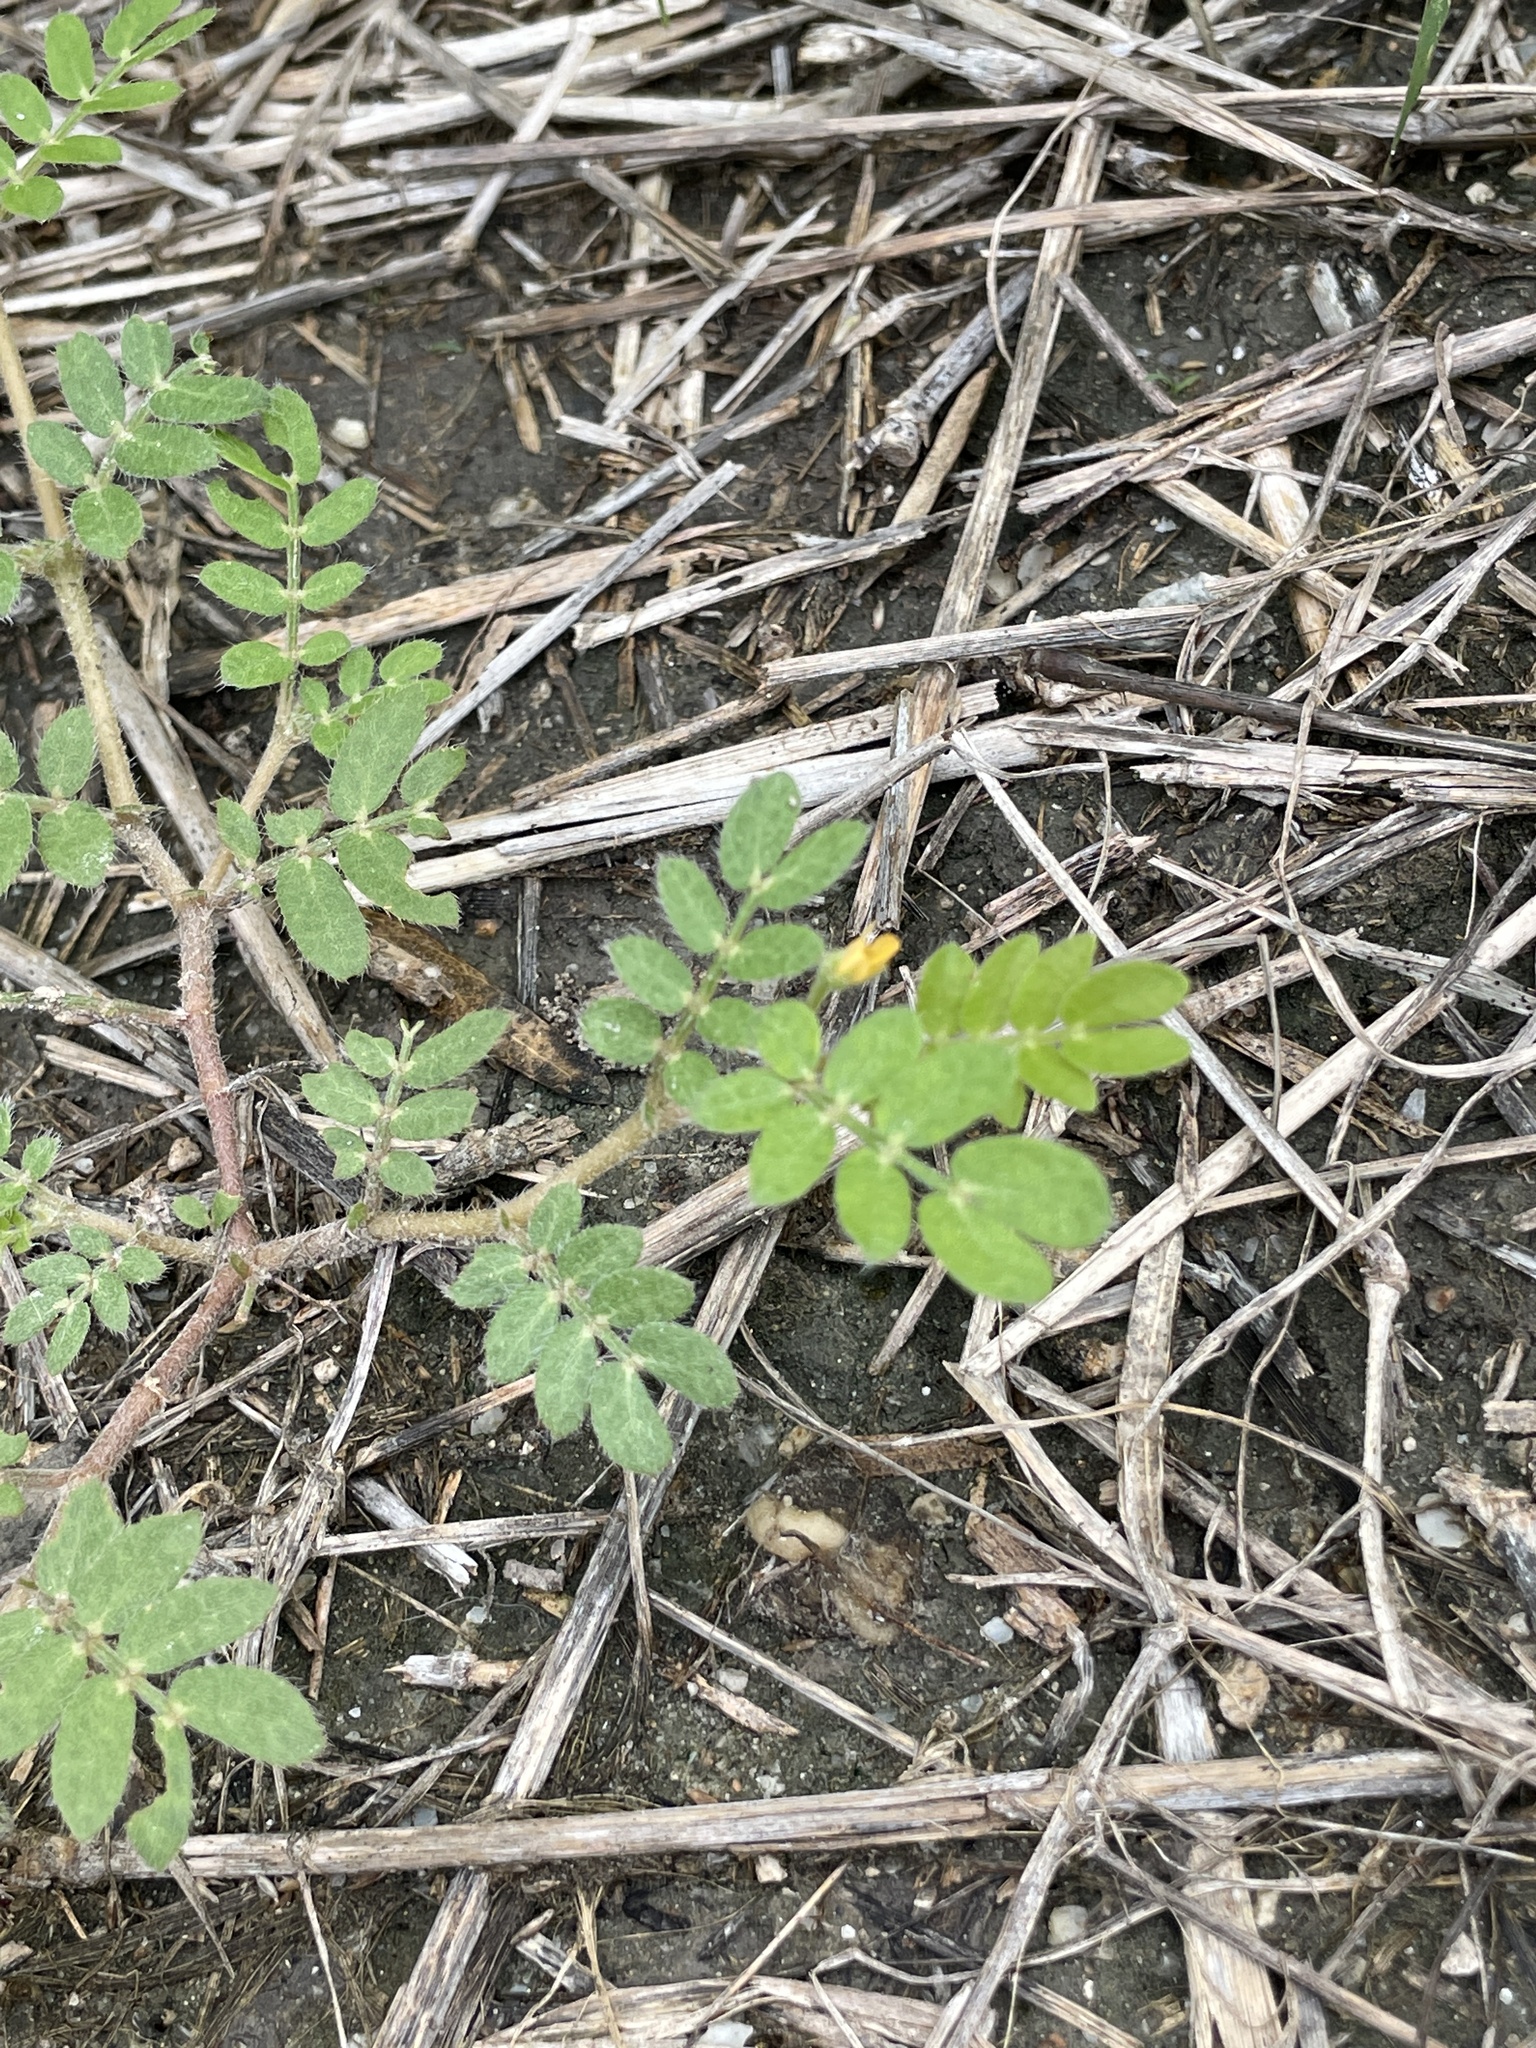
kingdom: Plantae
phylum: Tracheophyta
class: Magnoliopsida
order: Zygophyllales
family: Zygophyllaceae
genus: Tribulus
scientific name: Tribulus terrestris
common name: Puncturevine
